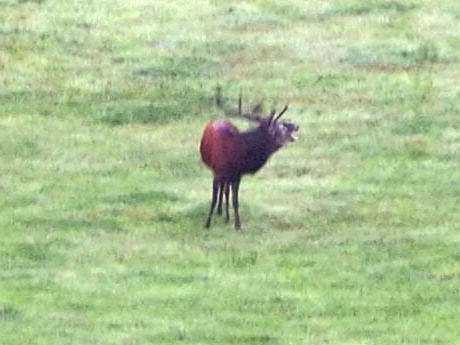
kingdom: Animalia
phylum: Chordata
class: Mammalia
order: Artiodactyla
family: Cervidae
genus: Cervus
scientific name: Cervus elaphus
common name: Red deer
